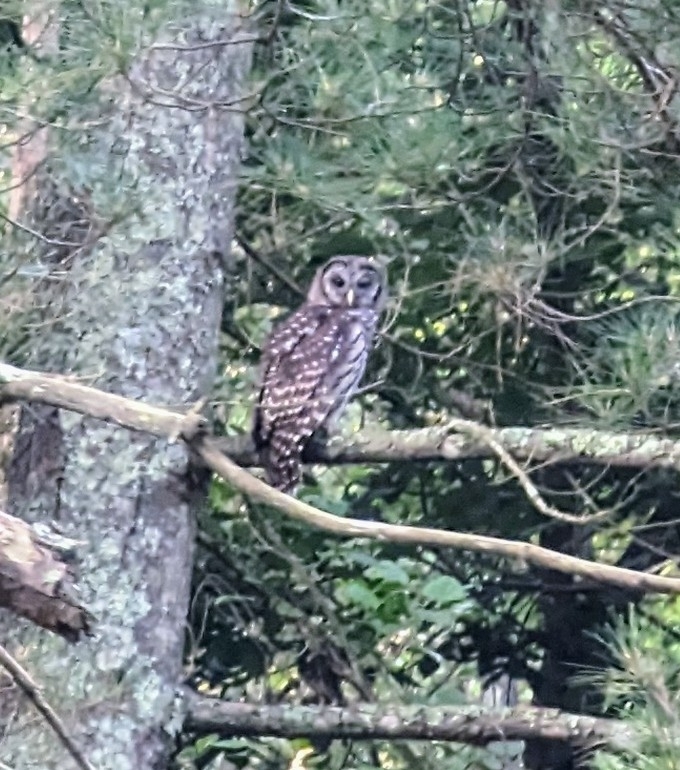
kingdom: Animalia
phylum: Chordata
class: Aves
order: Strigiformes
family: Strigidae
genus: Strix
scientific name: Strix varia
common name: Barred owl
